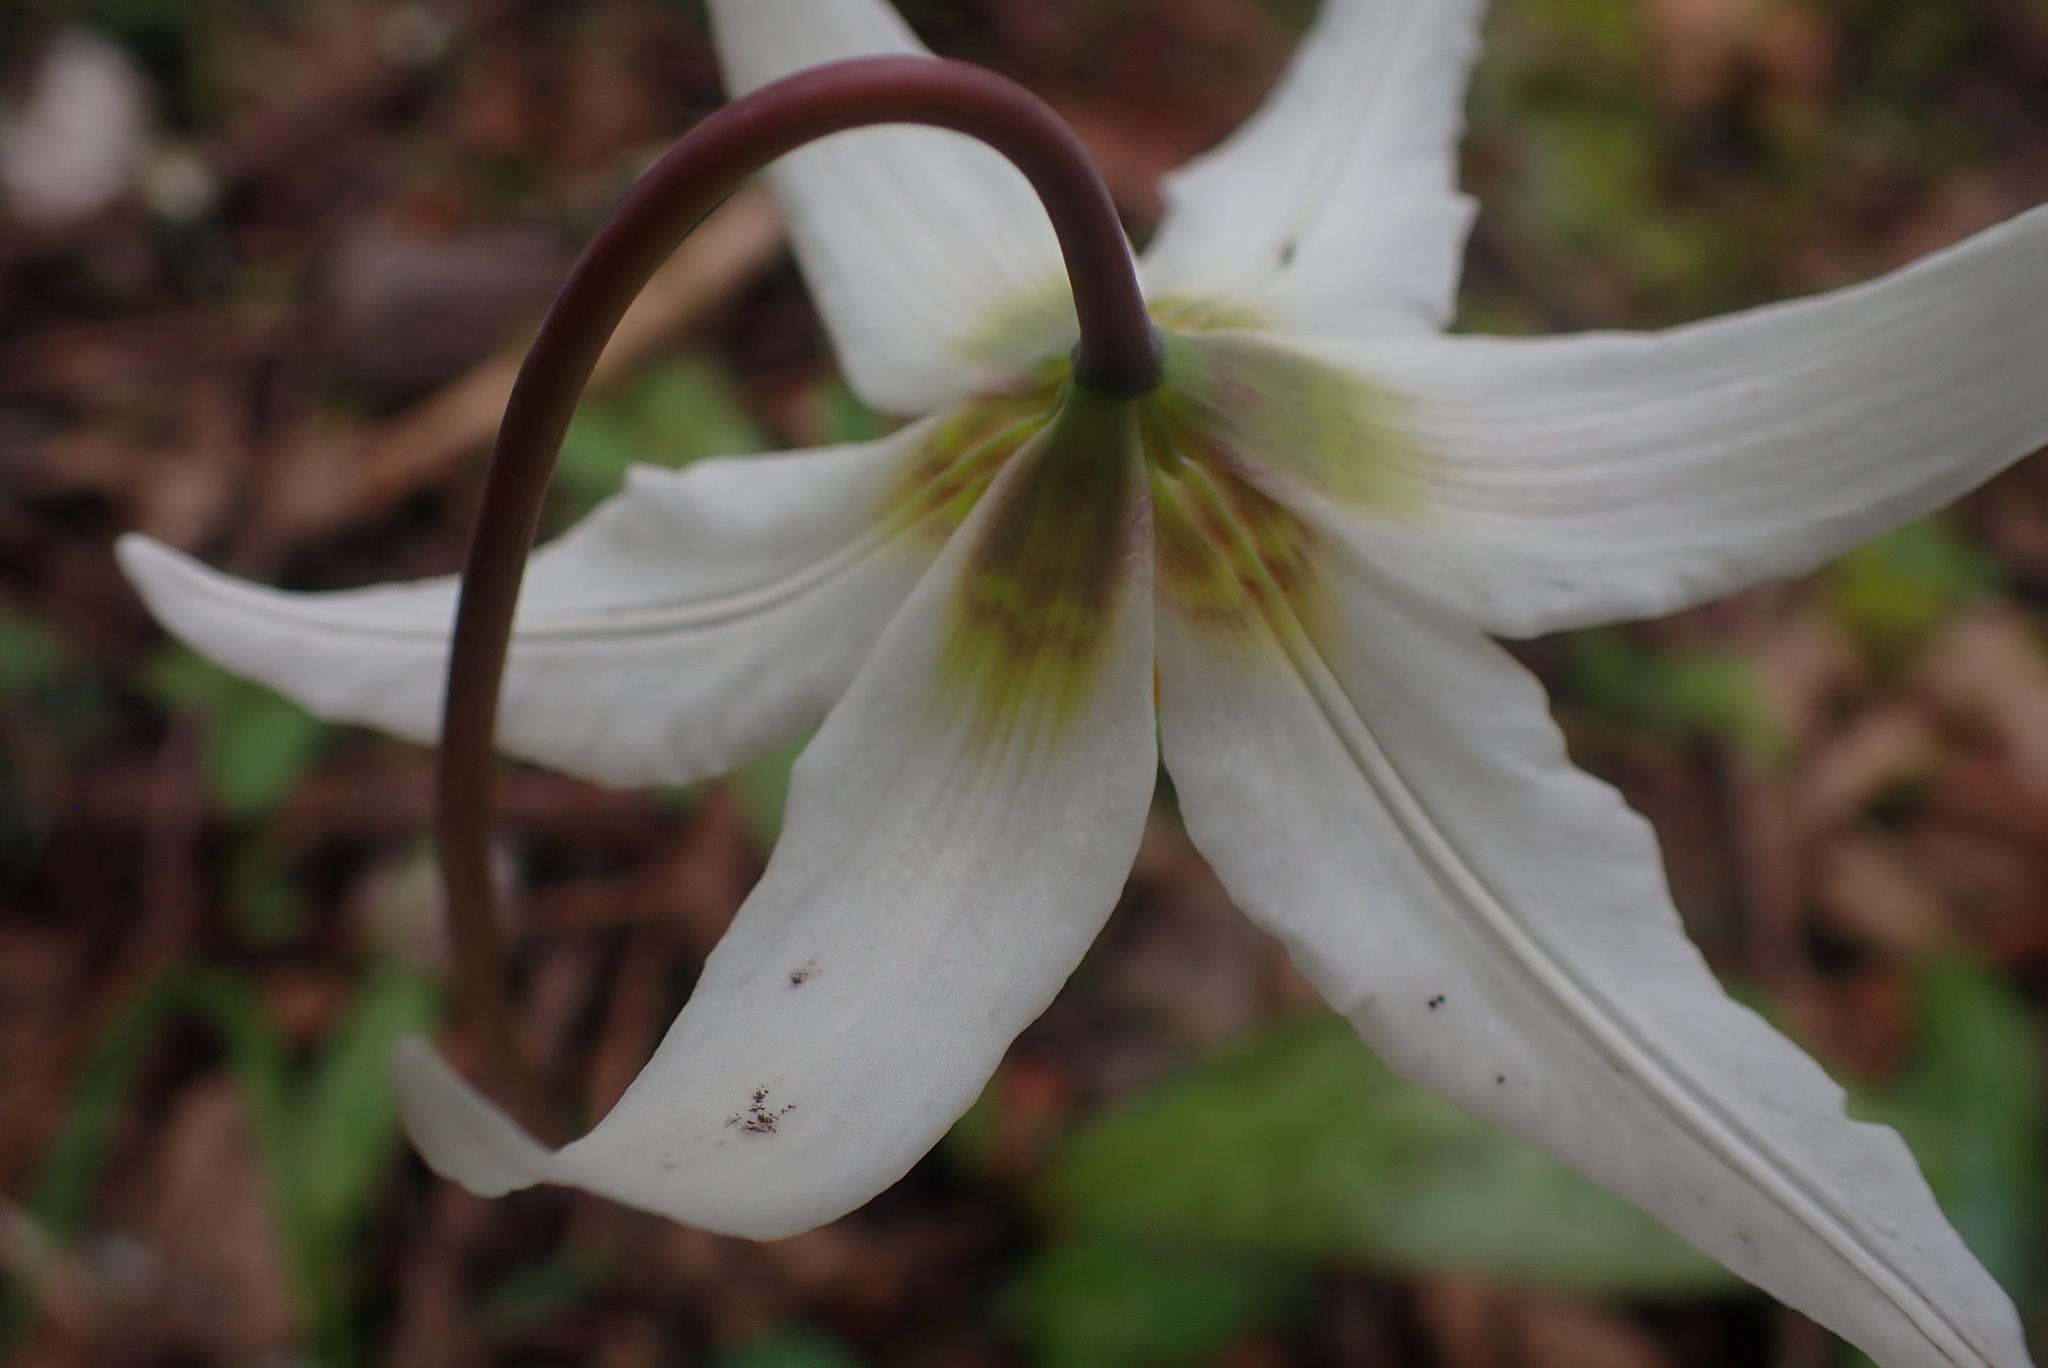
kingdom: Plantae
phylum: Tracheophyta
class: Liliopsida
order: Liliales
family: Liliaceae
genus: Erythronium
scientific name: Erythronium oregonum
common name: Giant adder's-tongue
